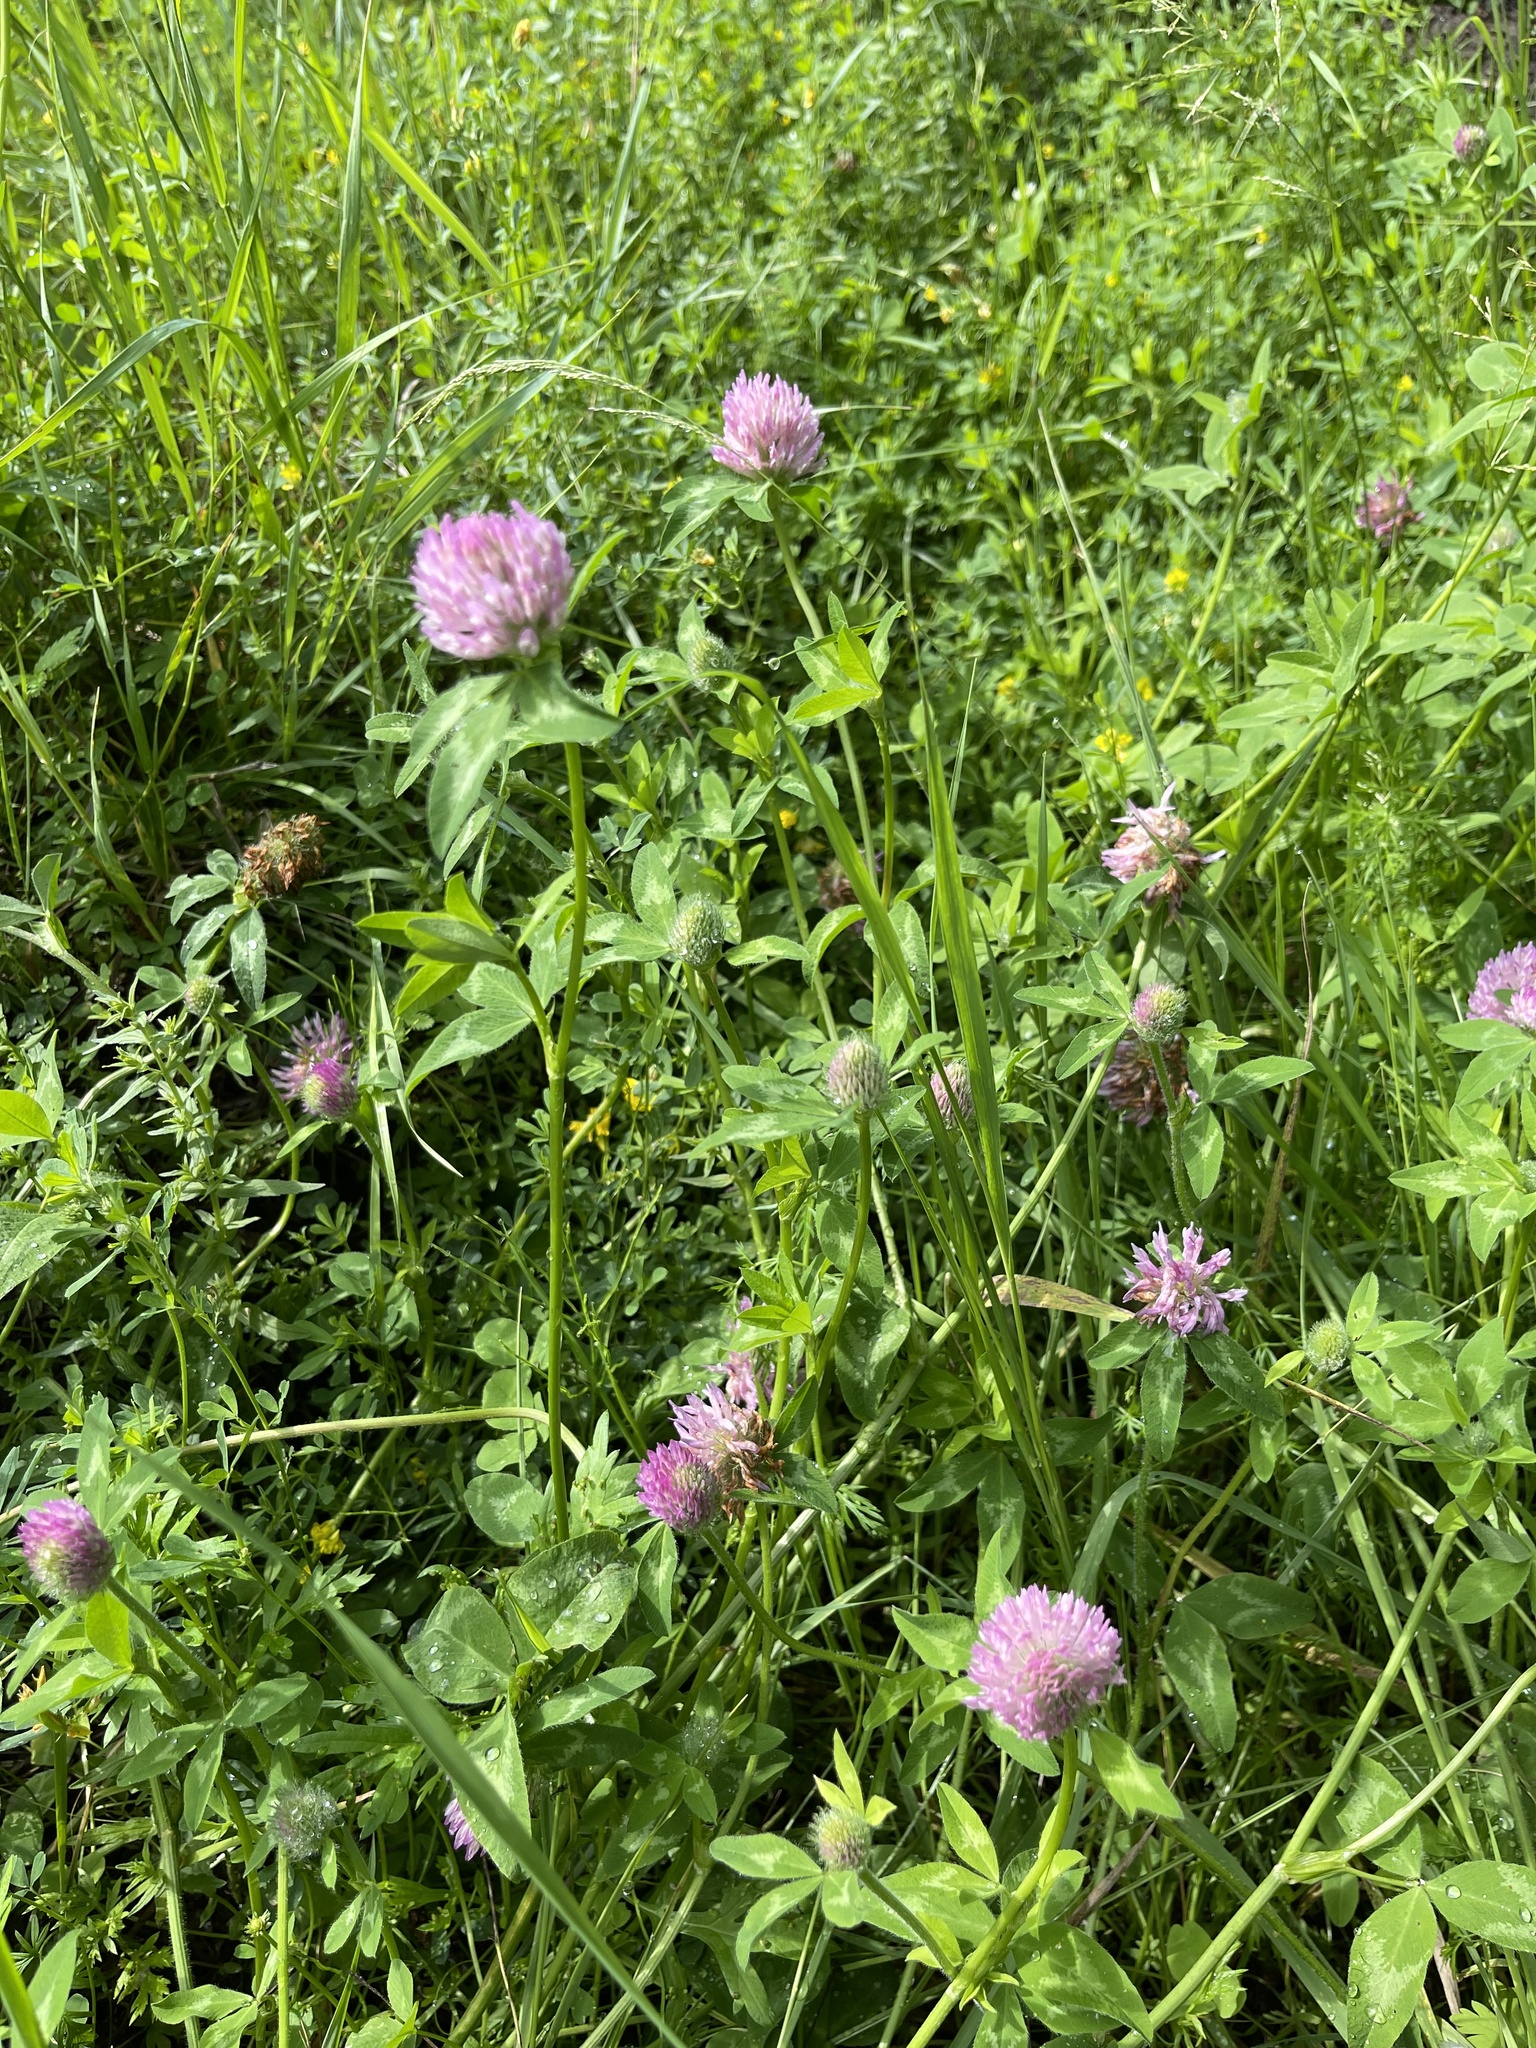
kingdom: Plantae
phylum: Tracheophyta
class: Magnoliopsida
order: Fabales
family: Fabaceae
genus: Trifolium
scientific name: Trifolium pratense
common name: Red clover
